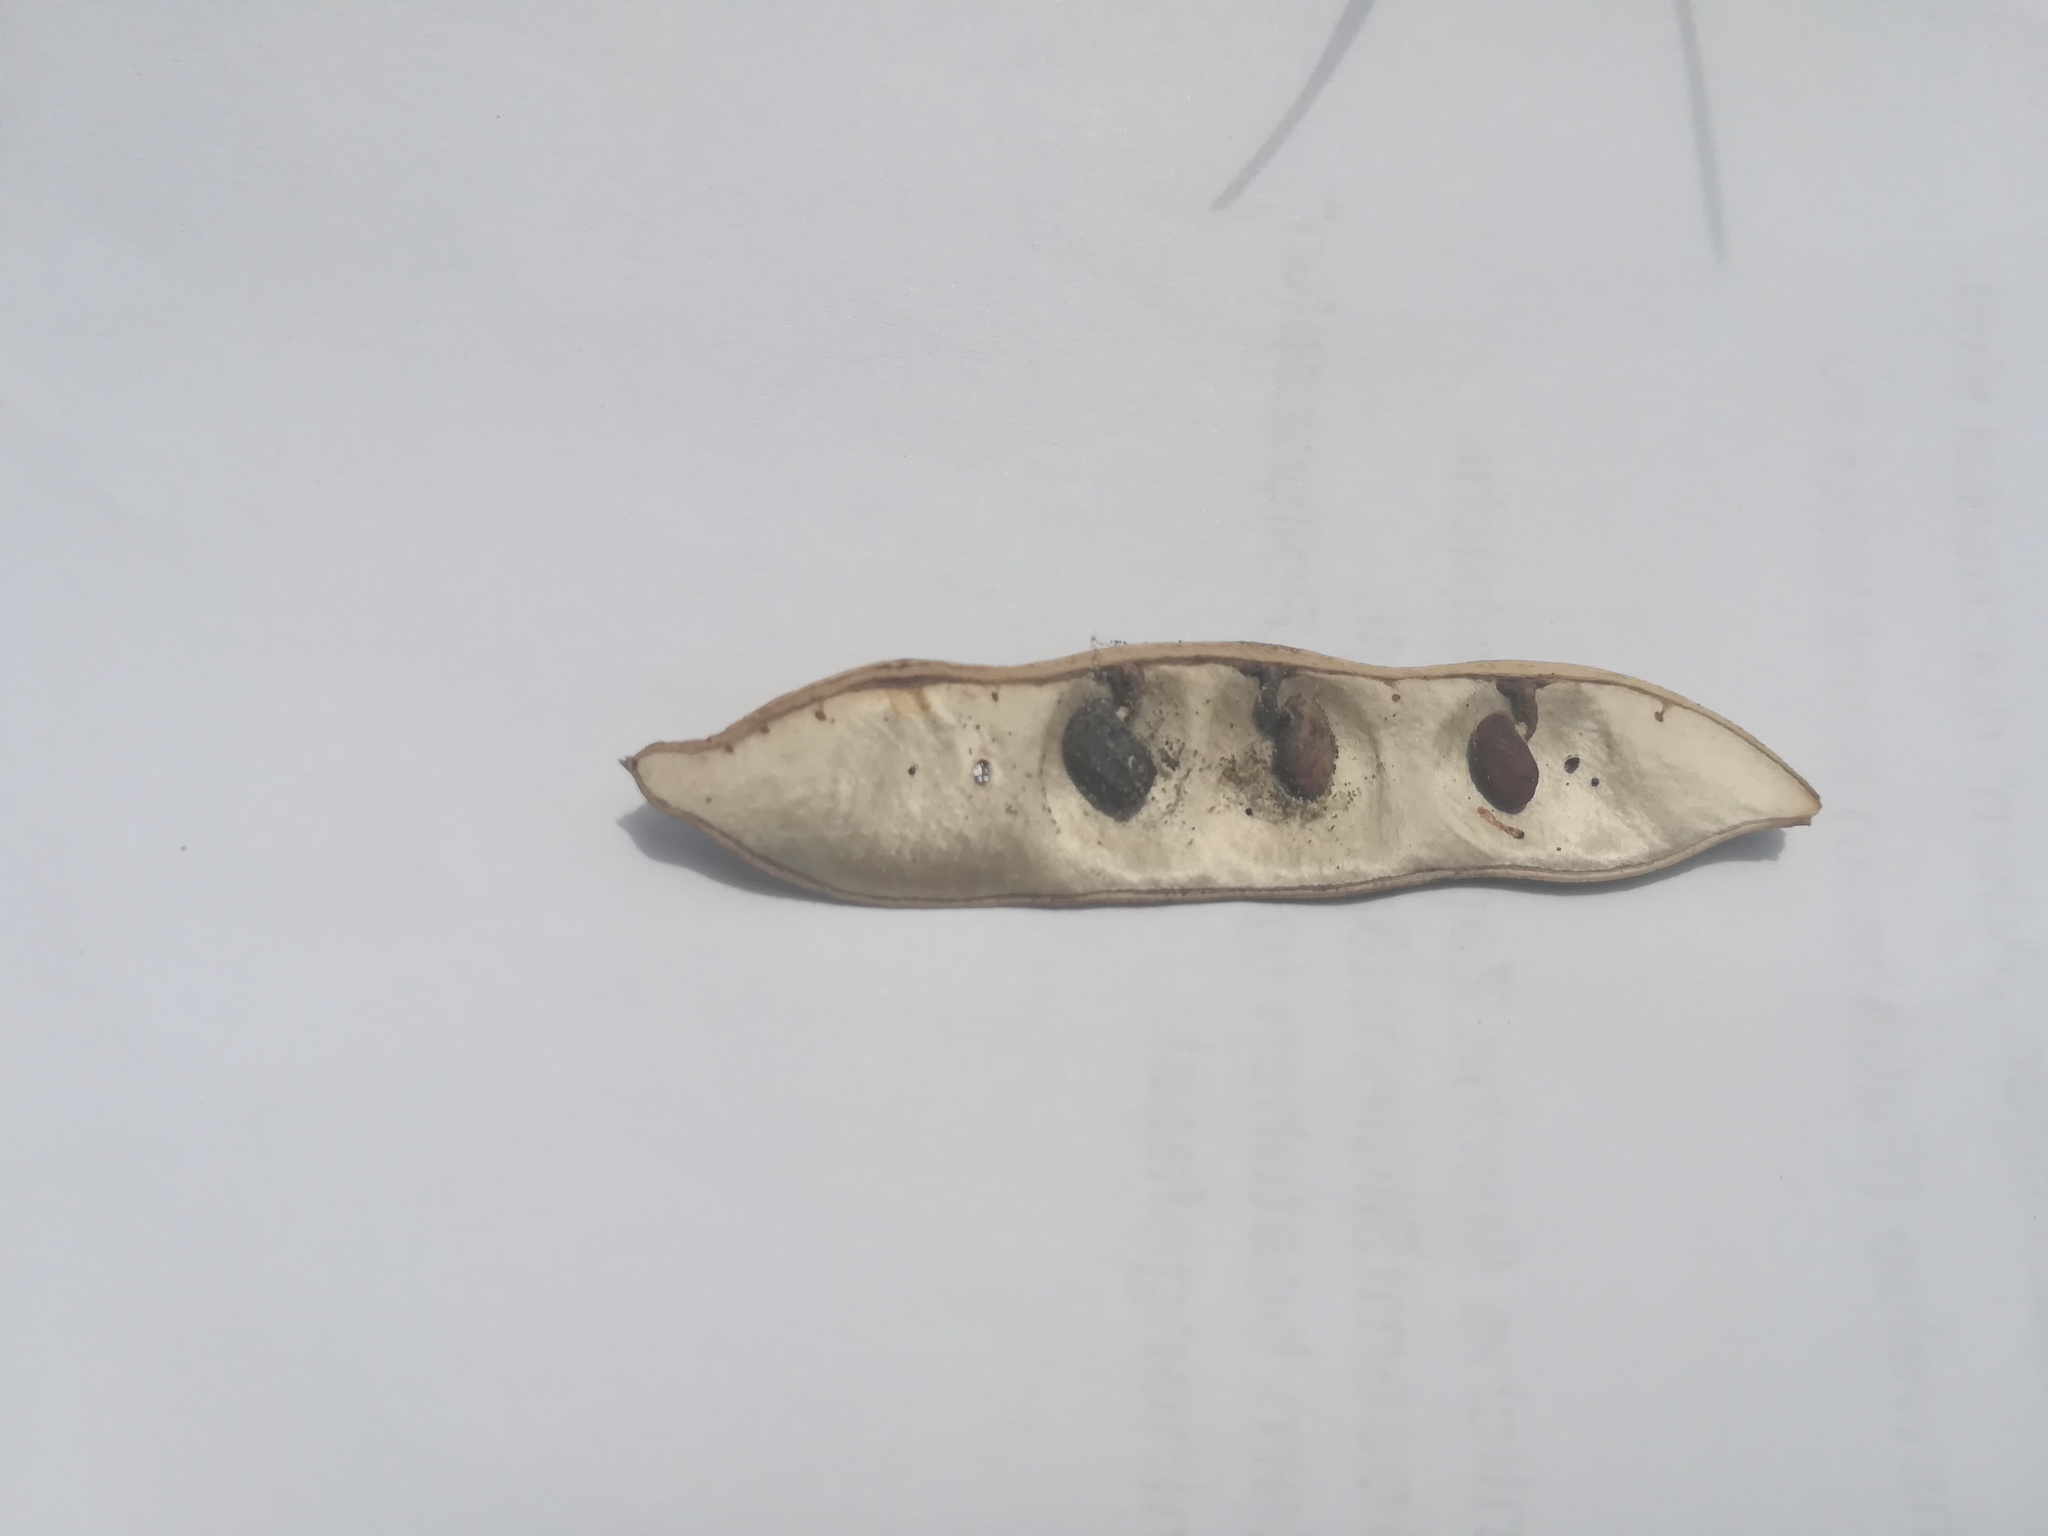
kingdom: Plantae
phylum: Tracheophyta
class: Magnoliopsida
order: Fabales
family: Fabaceae
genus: Robinia
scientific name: Robinia pseudoacacia
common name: Black locust
